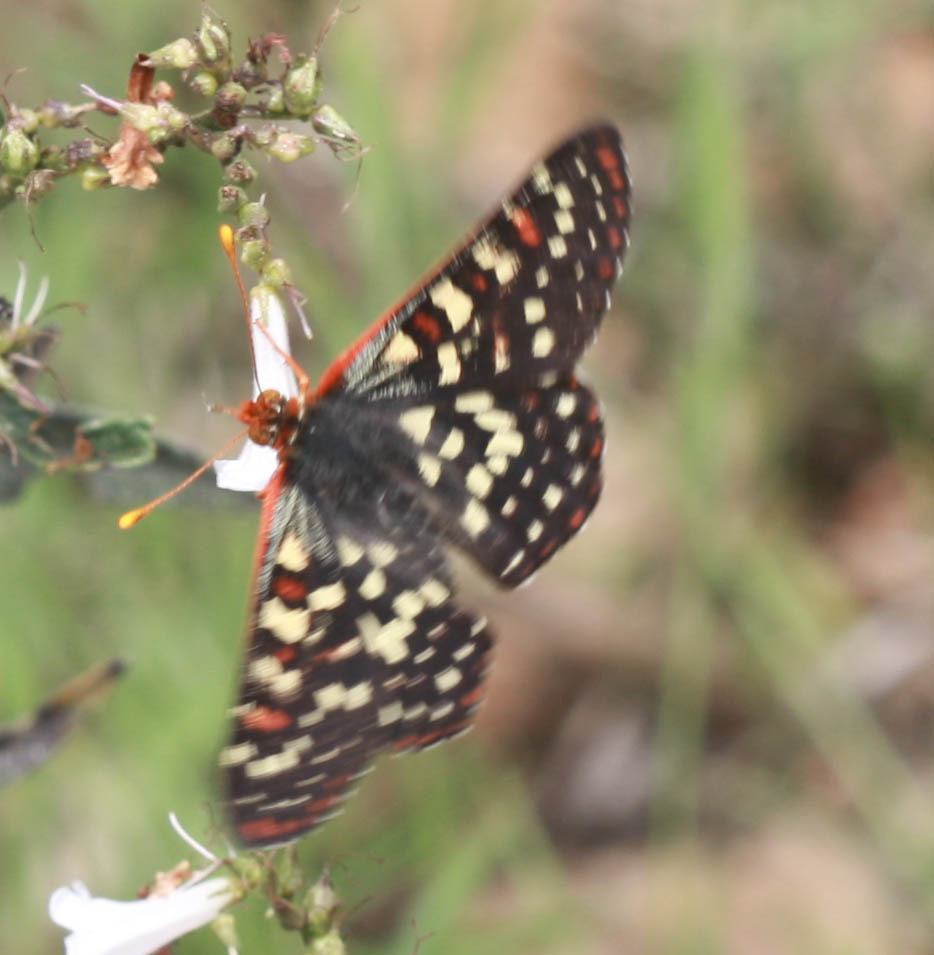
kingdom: Animalia
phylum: Arthropoda
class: Insecta
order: Lepidoptera
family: Nymphalidae
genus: Occidryas
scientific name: Occidryas chalcedona
